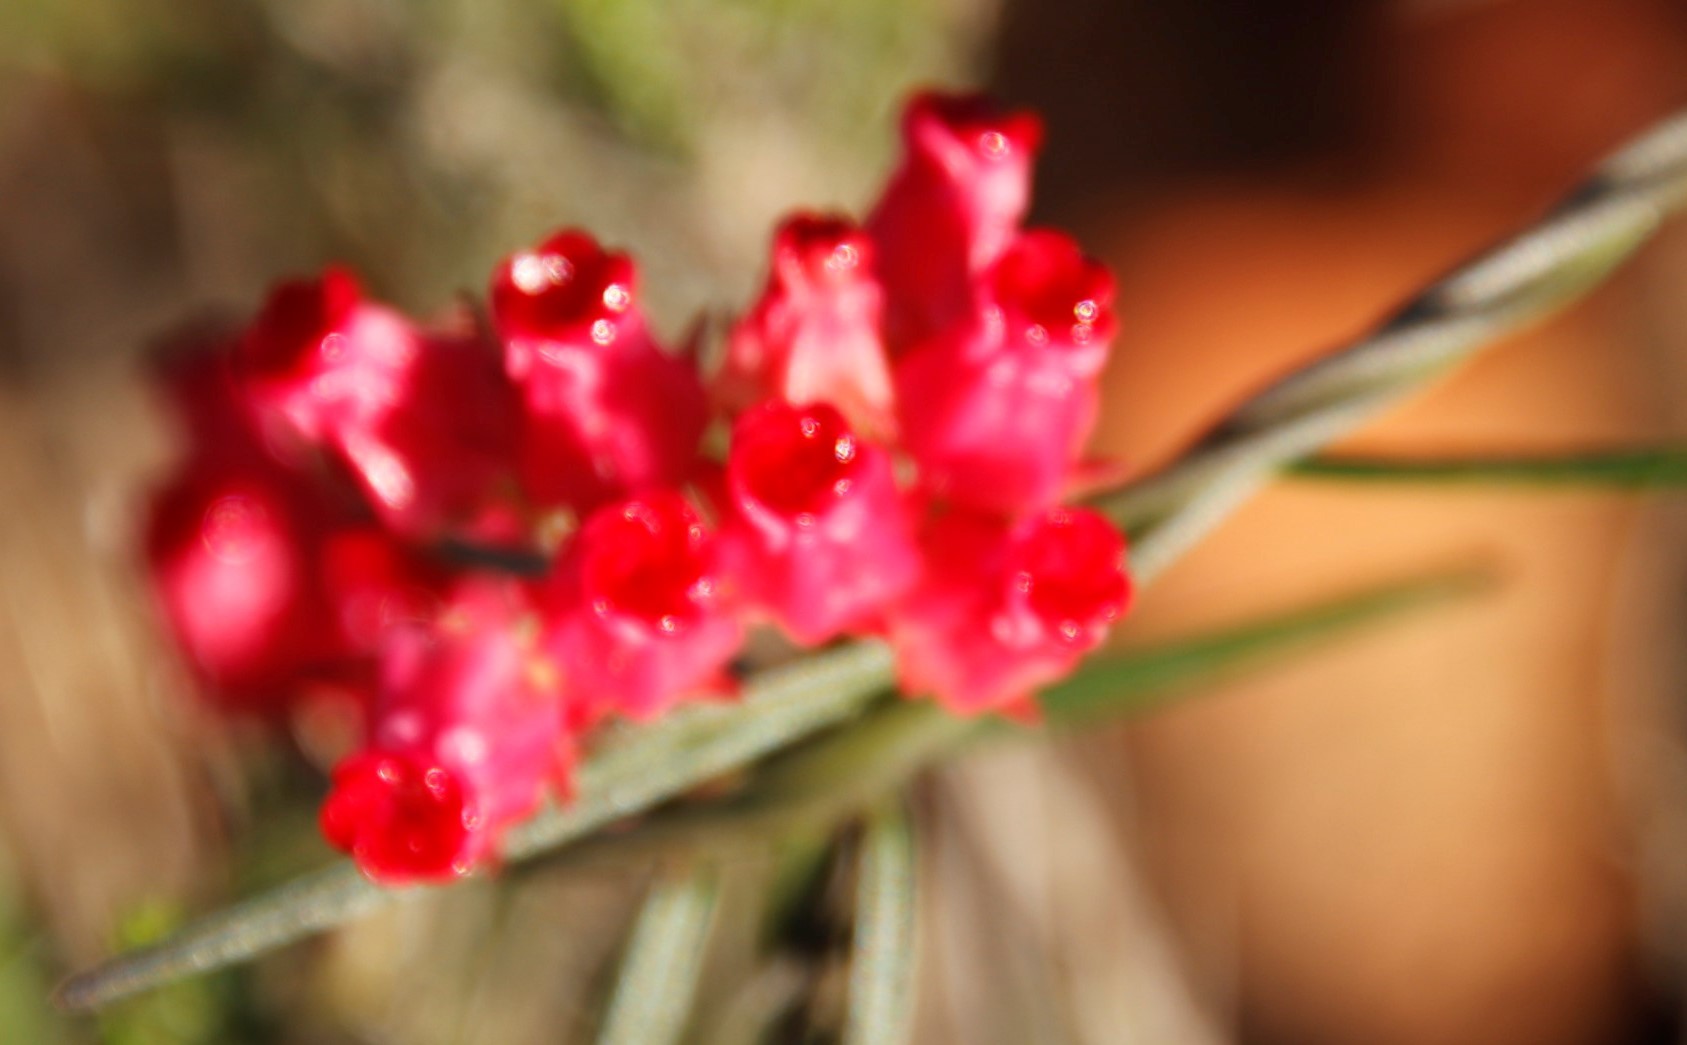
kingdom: Plantae
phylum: Tracheophyta
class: Magnoliopsida
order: Gentianales
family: Apocynaceae
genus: Microloma
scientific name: Microloma tenuifolium
